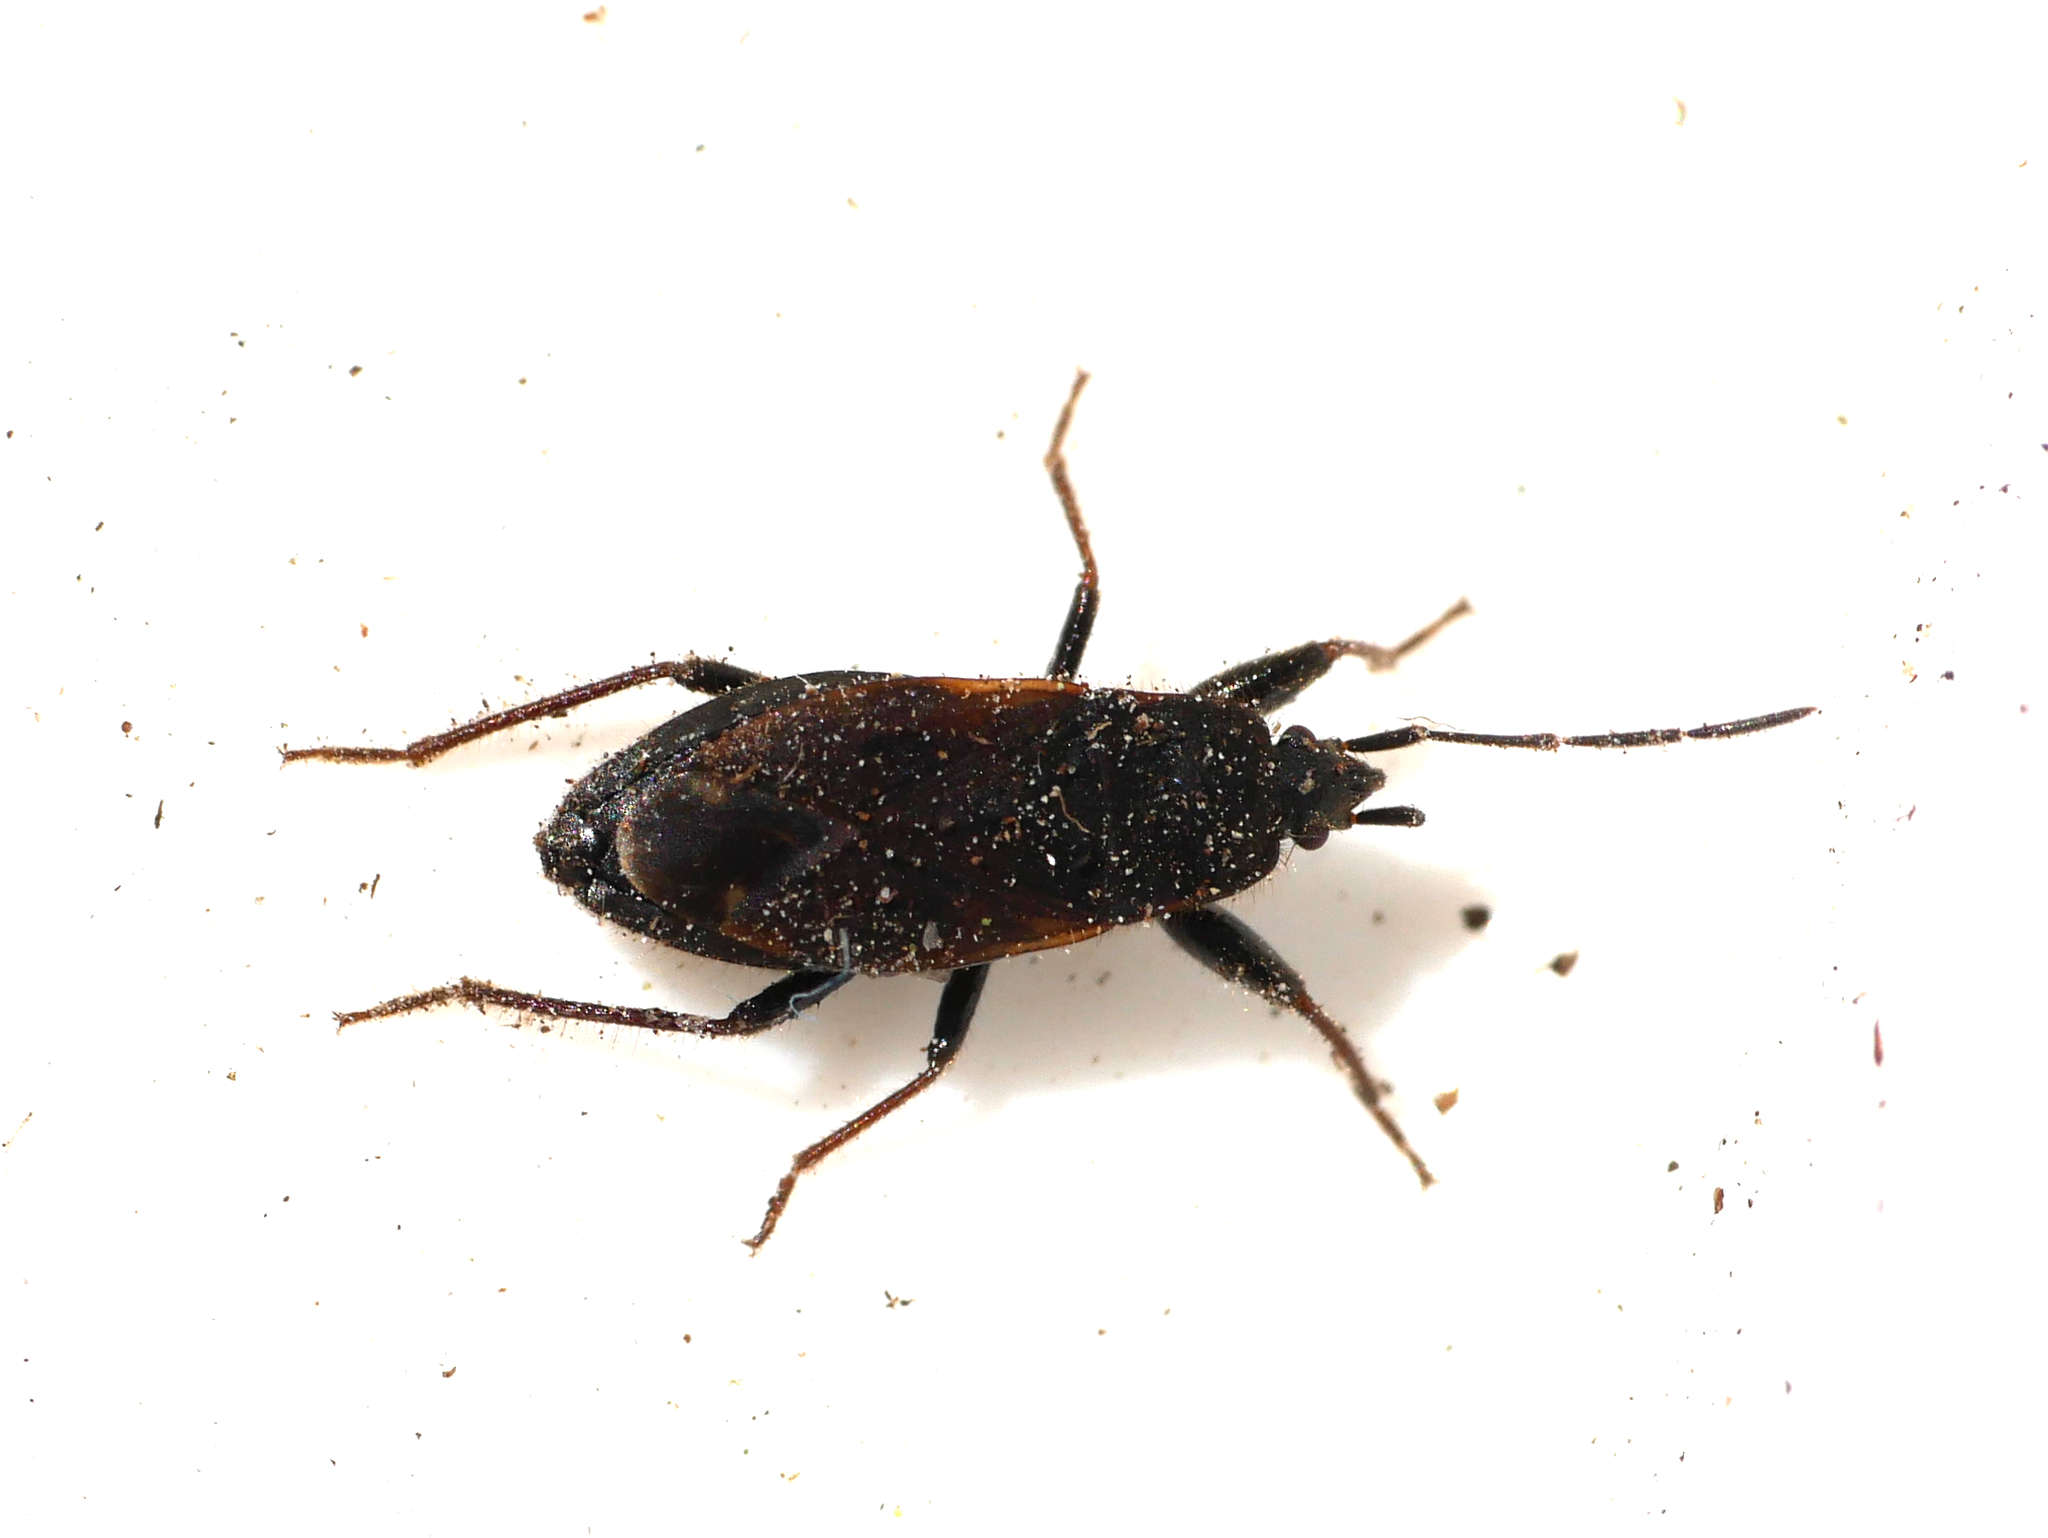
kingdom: Animalia
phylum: Arthropoda
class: Insecta
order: Hemiptera
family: Rhyparochromidae
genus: Eremocoris
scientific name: Eremocoris plebejus
